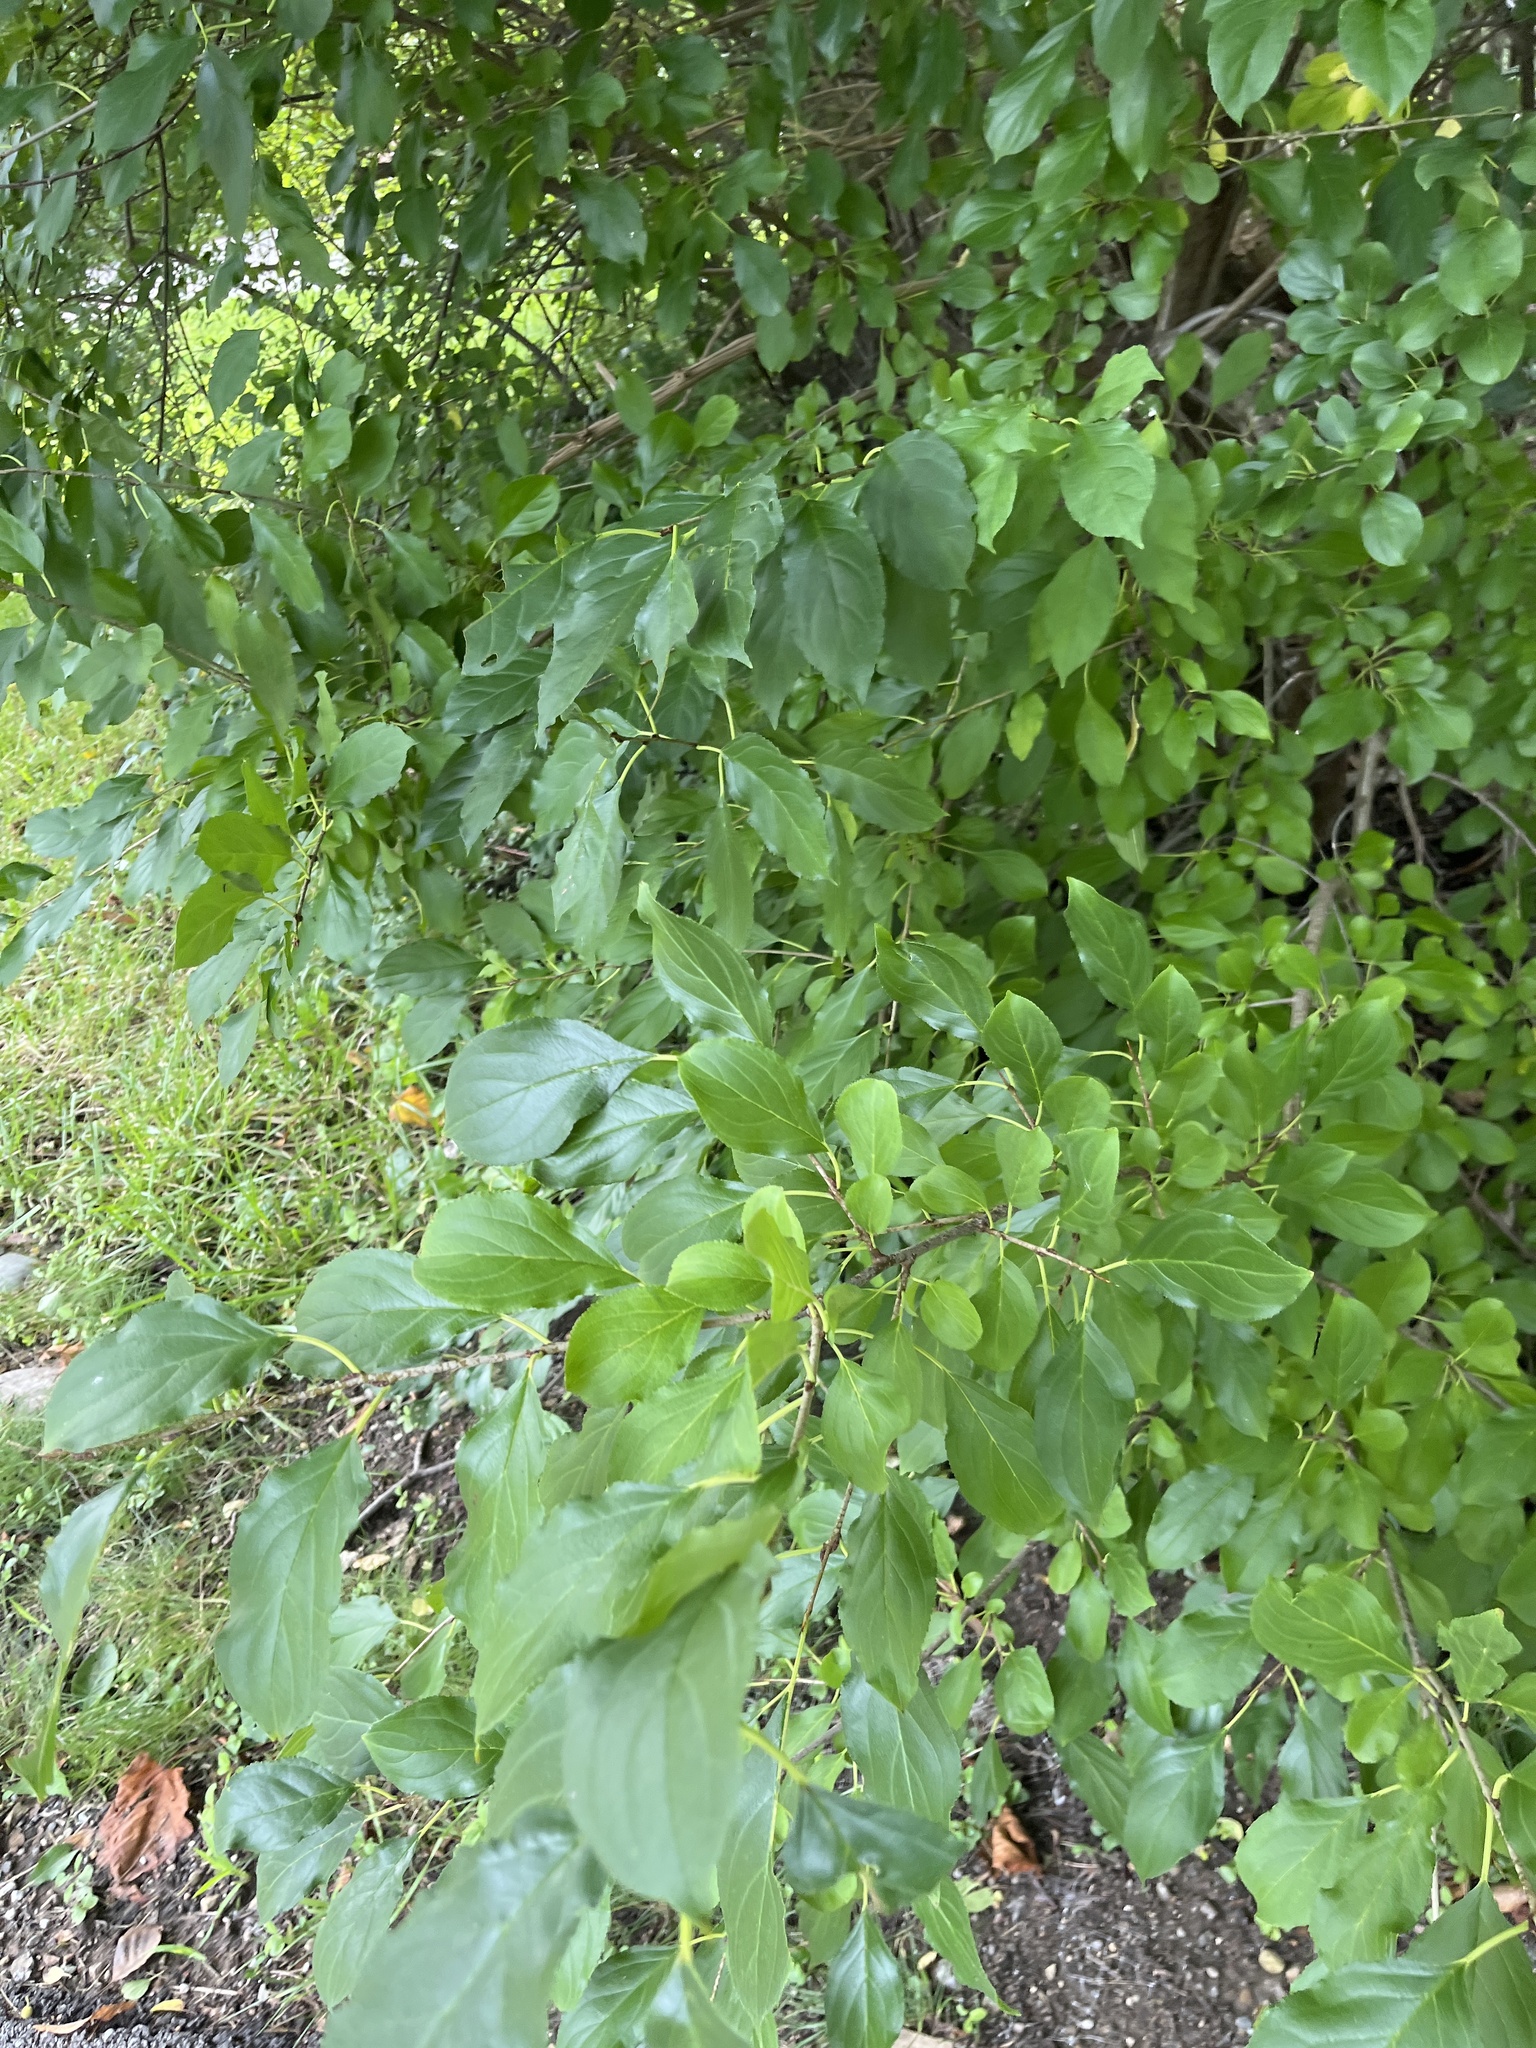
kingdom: Plantae
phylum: Tracheophyta
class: Magnoliopsida
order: Rosales
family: Rhamnaceae
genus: Rhamnus
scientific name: Rhamnus cathartica
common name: Common buckthorn
